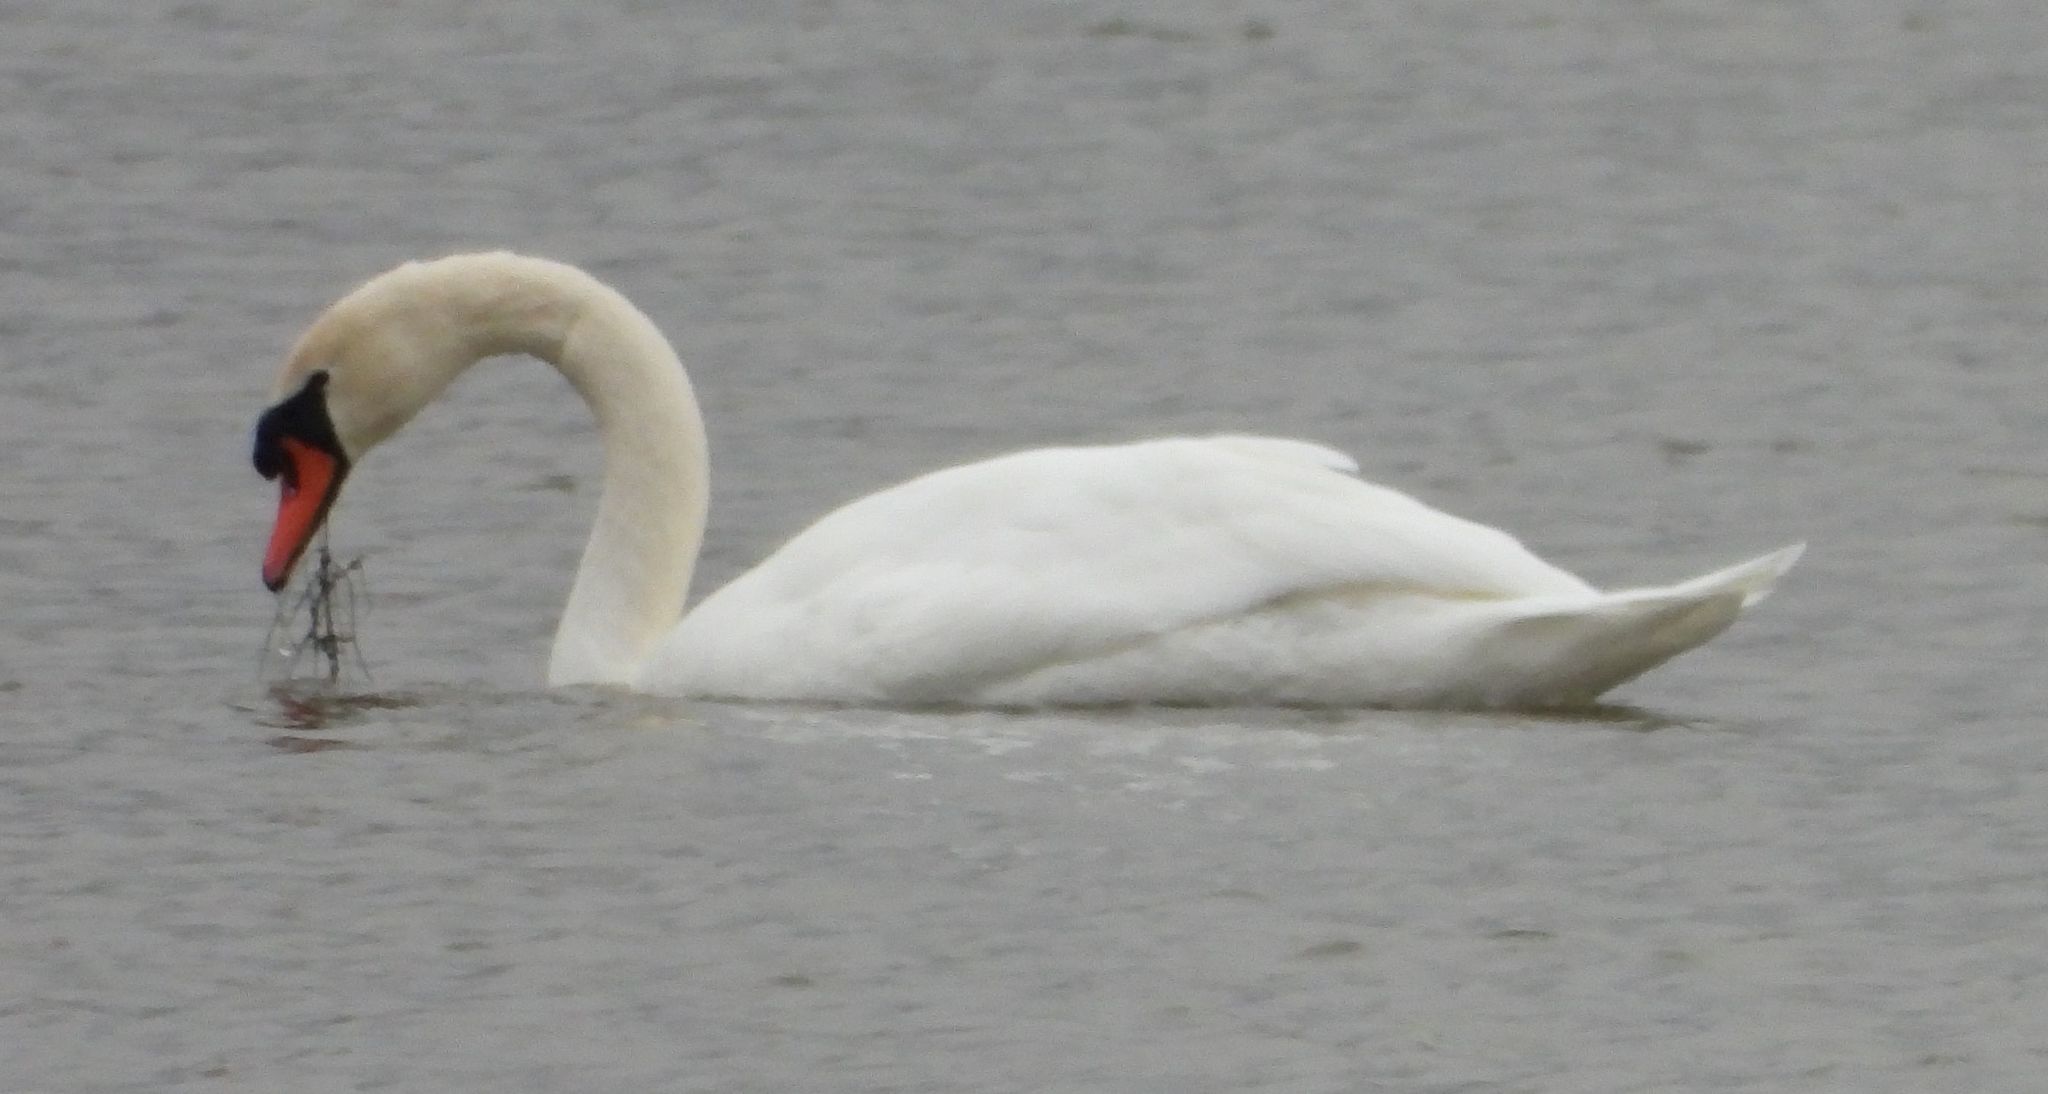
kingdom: Animalia
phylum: Chordata
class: Aves
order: Anseriformes
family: Anatidae
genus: Cygnus
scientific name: Cygnus olor
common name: Mute swan
